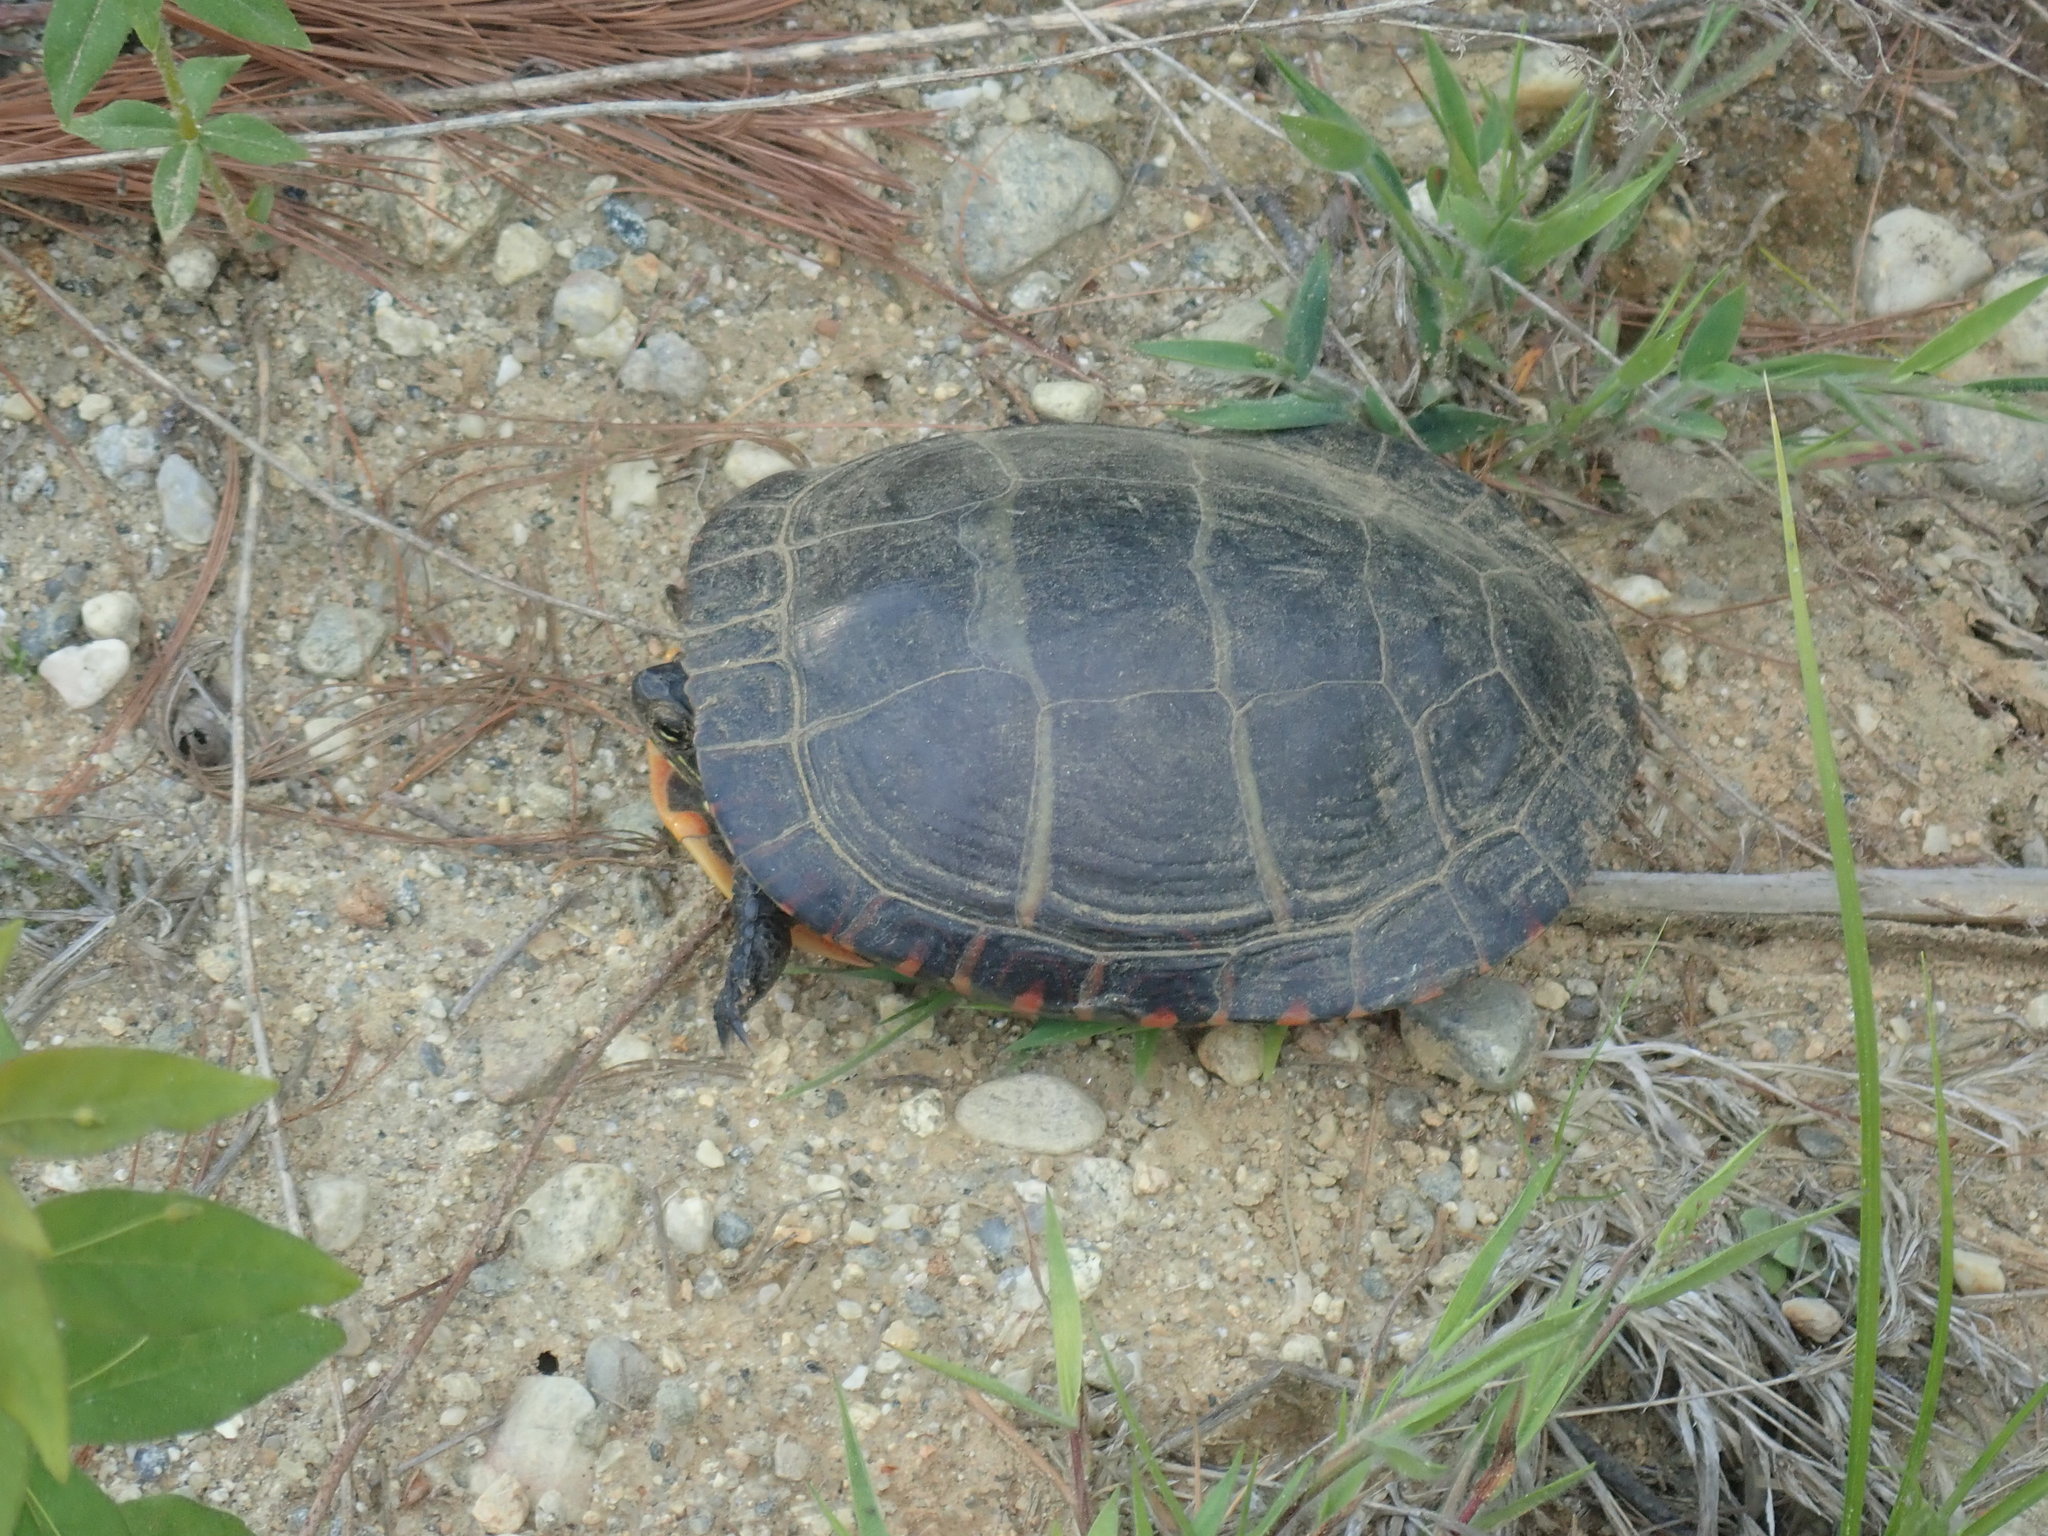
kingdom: Animalia
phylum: Chordata
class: Testudines
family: Emydidae
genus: Chrysemys
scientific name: Chrysemys picta
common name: Painted turtle
